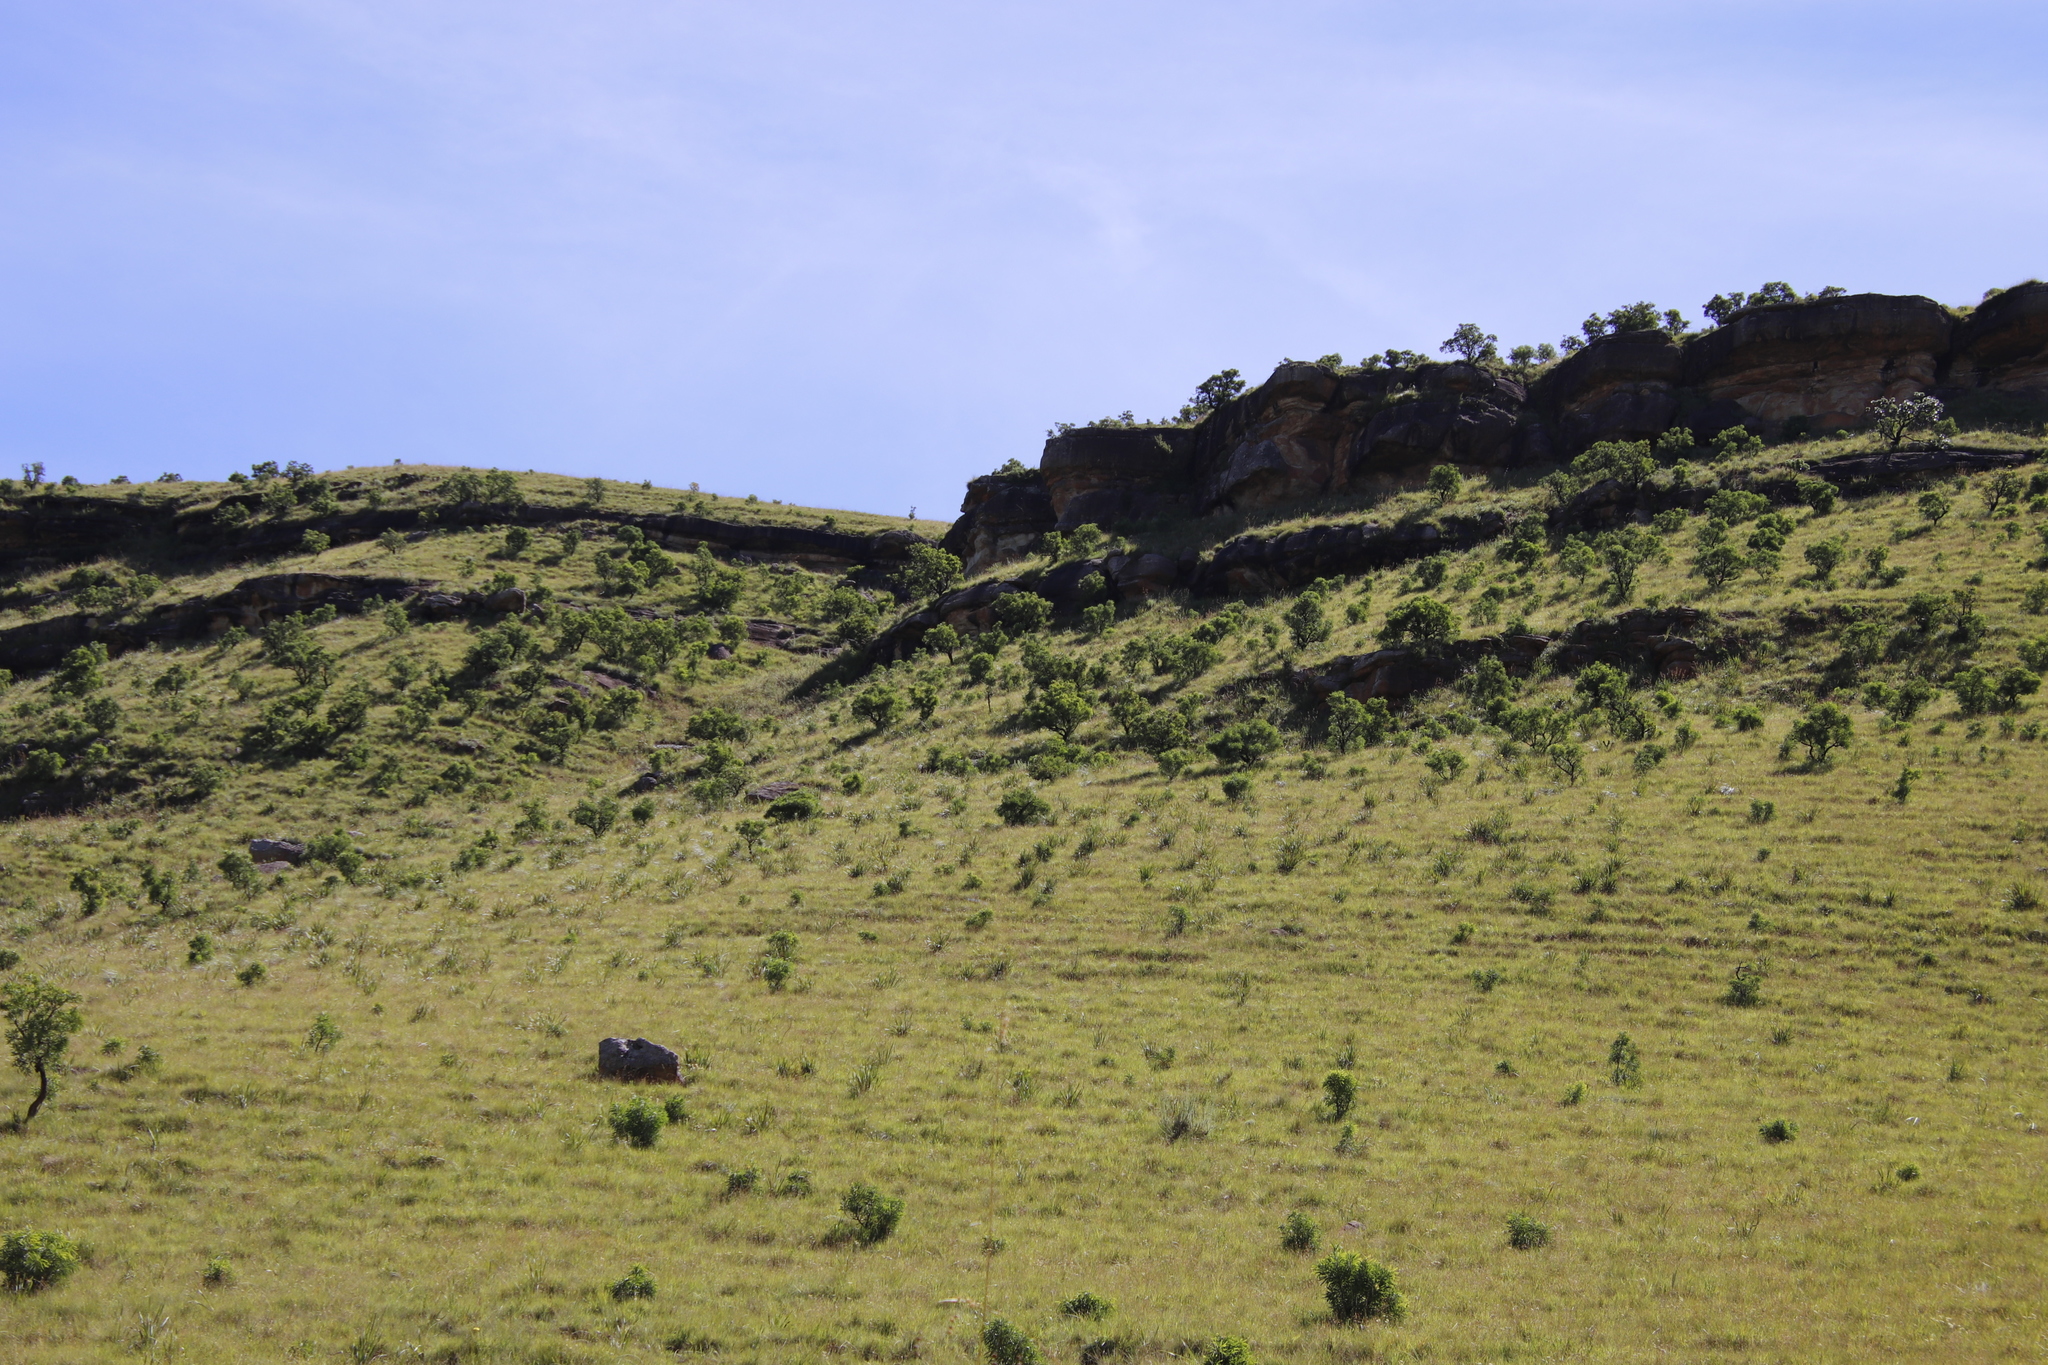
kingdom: Plantae
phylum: Tracheophyta
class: Magnoliopsida
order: Proteales
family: Proteaceae
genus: Protea
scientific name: Protea caffra
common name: Common sugarbush
